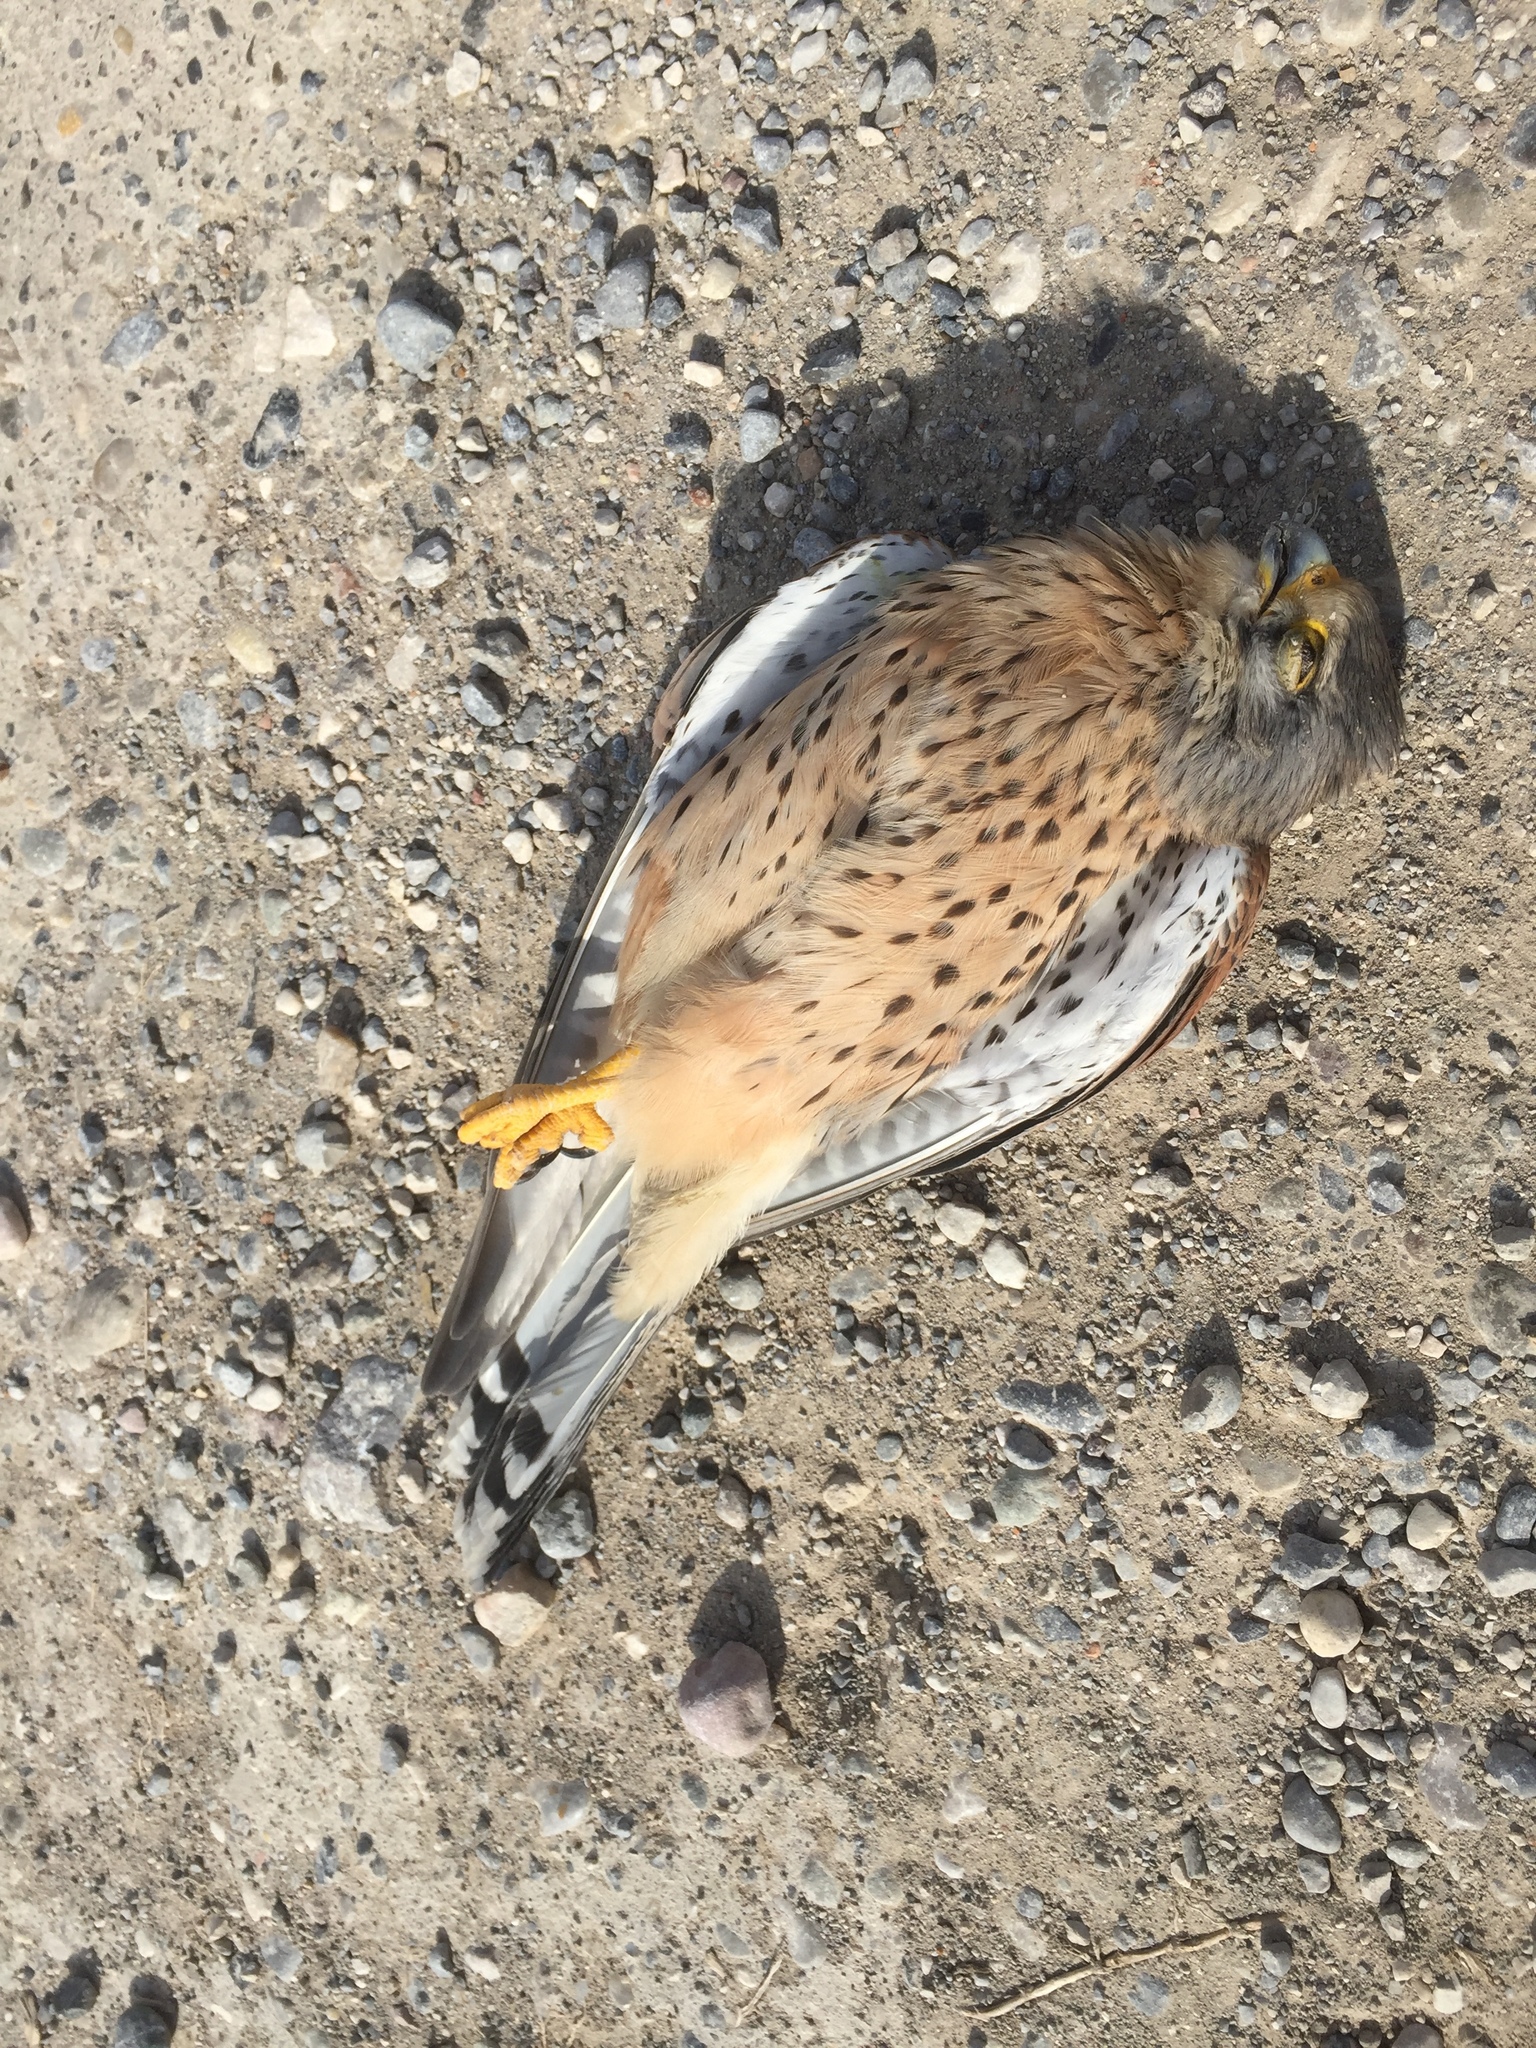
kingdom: Animalia
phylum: Chordata
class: Aves
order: Falconiformes
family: Falconidae
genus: Falco
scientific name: Falco tinnunculus
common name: Common kestrel
